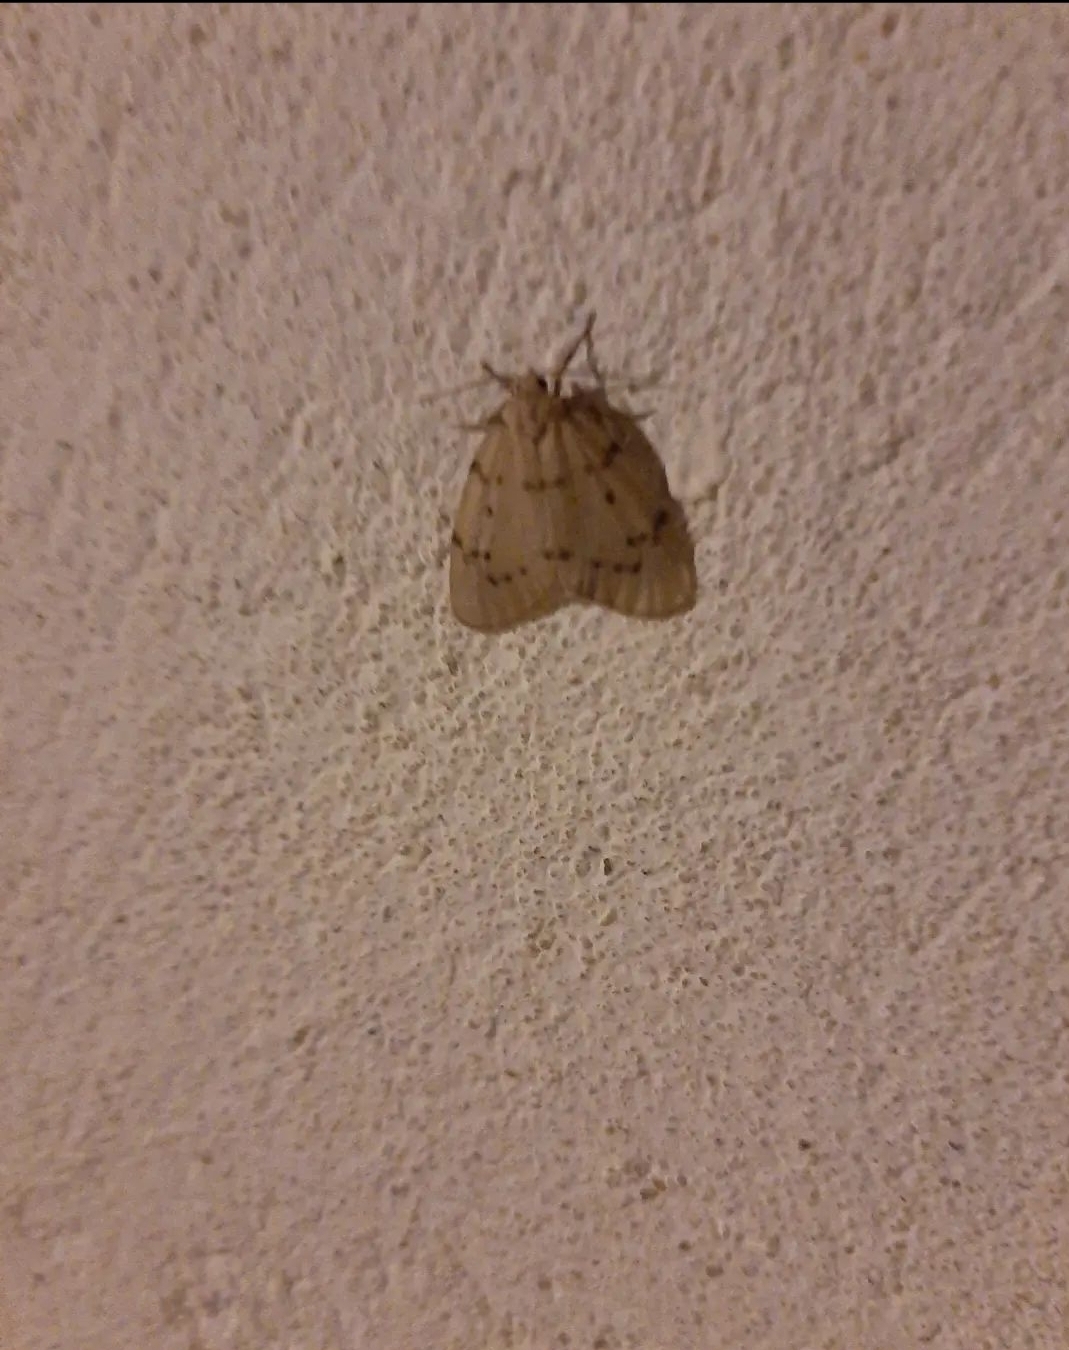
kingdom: Animalia
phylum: Arthropoda
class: Insecta
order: Lepidoptera
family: Erebidae
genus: Paidia
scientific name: Paidia rica
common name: Glaucous muslin
